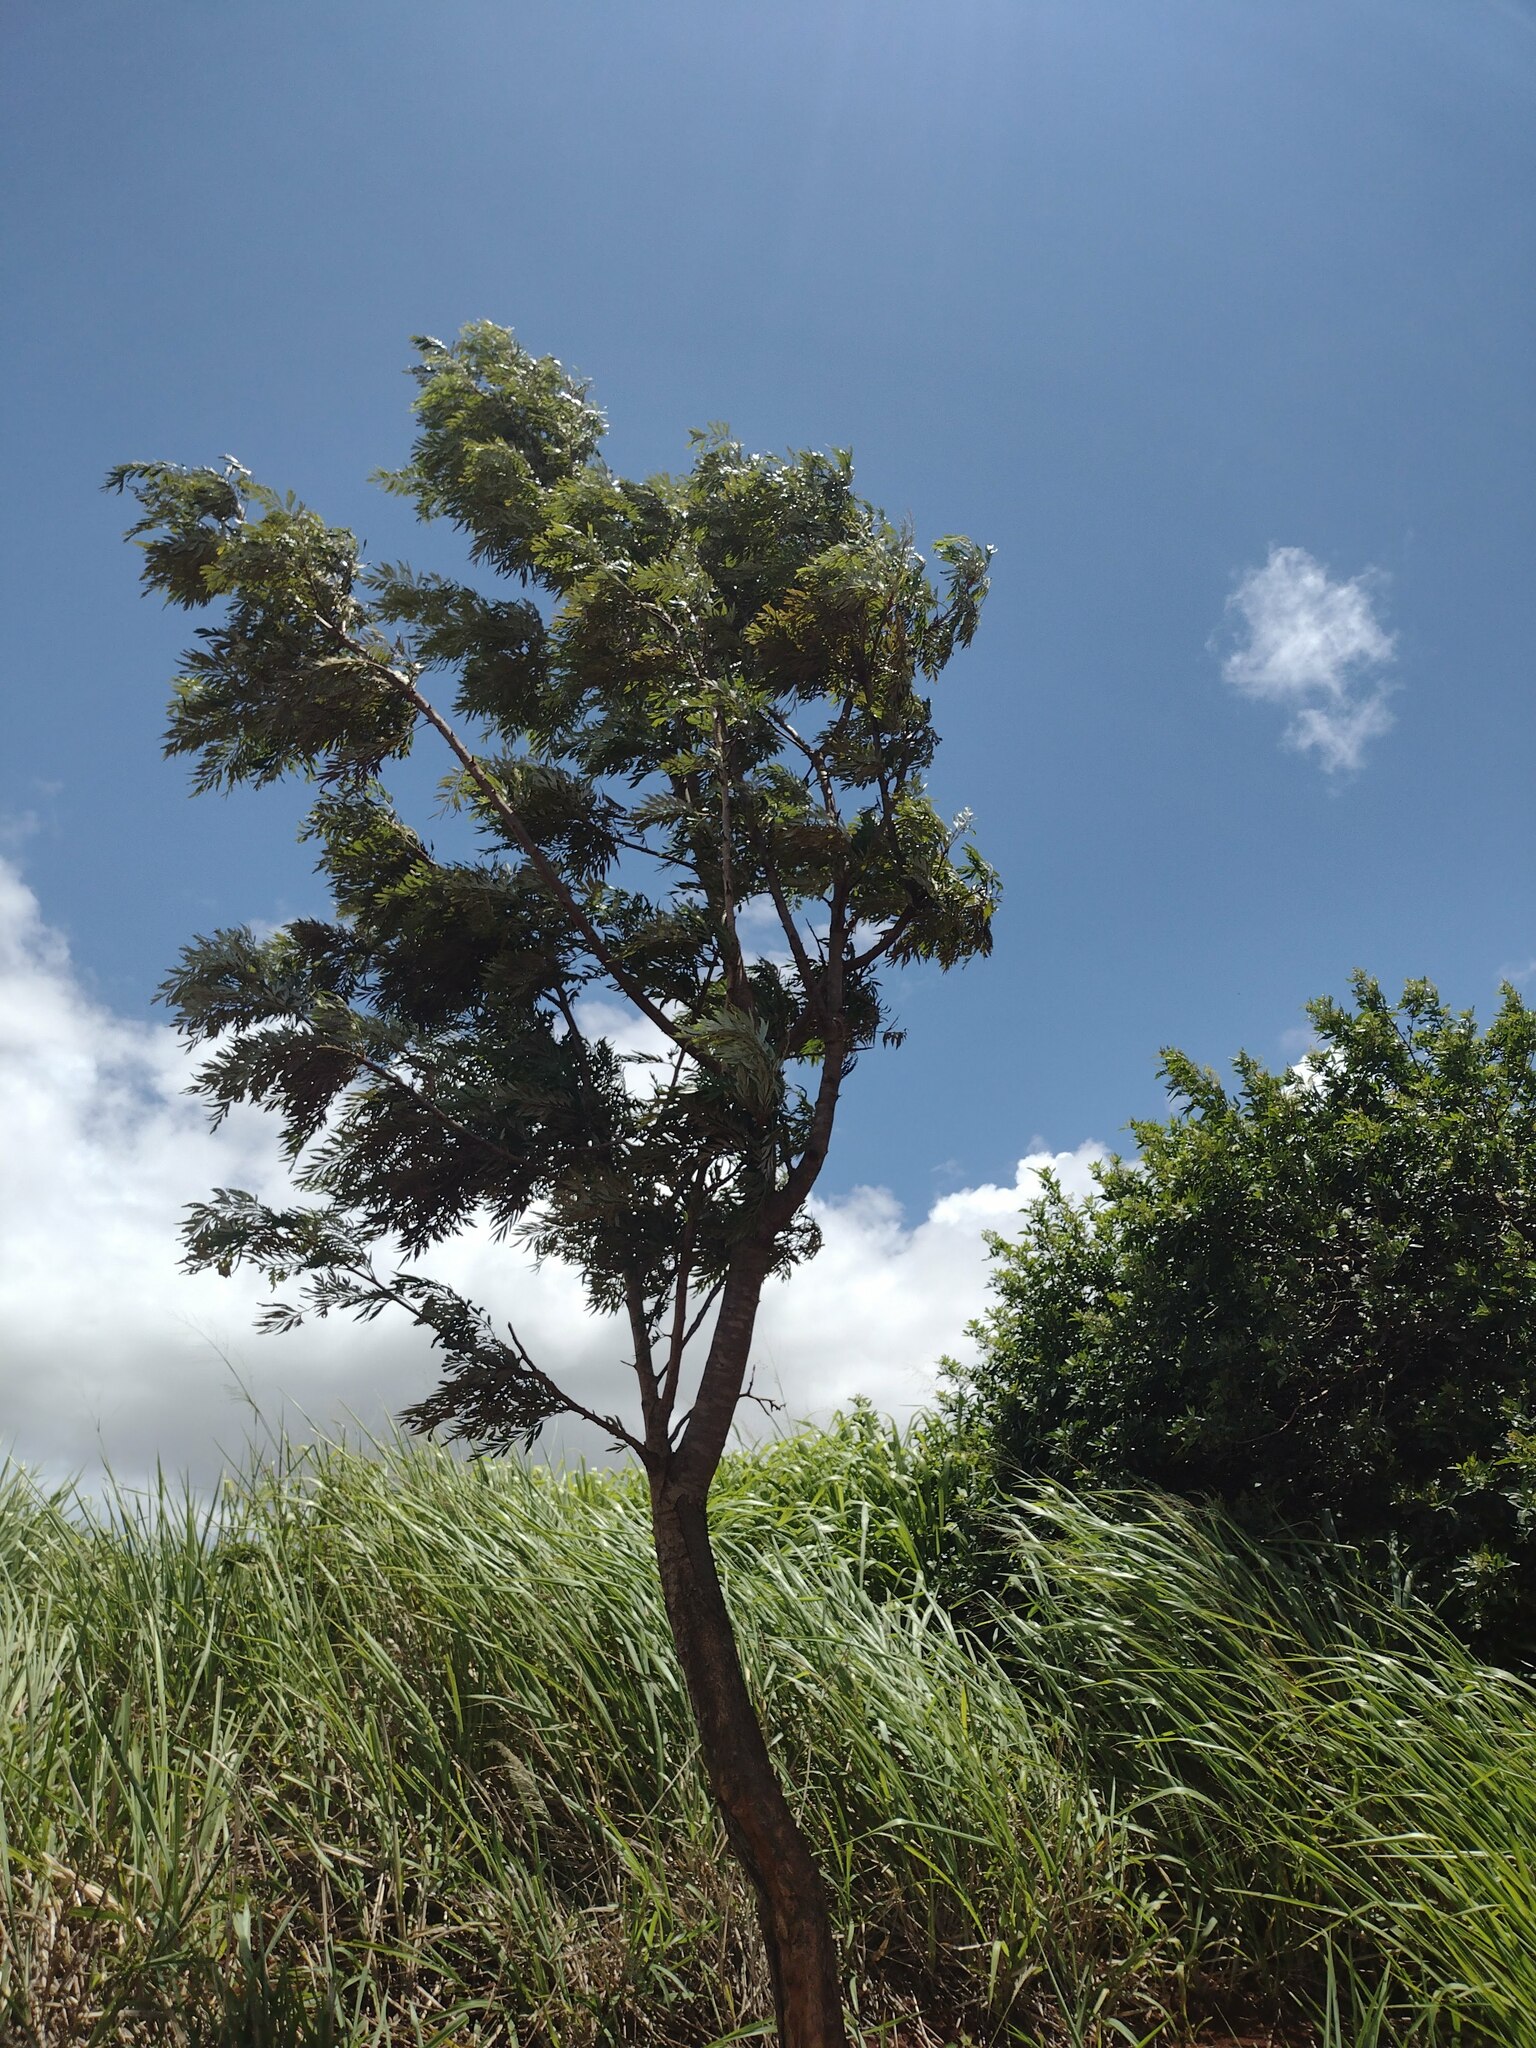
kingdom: Plantae
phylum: Tracheophyta
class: Magnoliopsida
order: Proteales
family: Proteaceae
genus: Grevillea
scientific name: Grevillea robusta
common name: Silkoak
